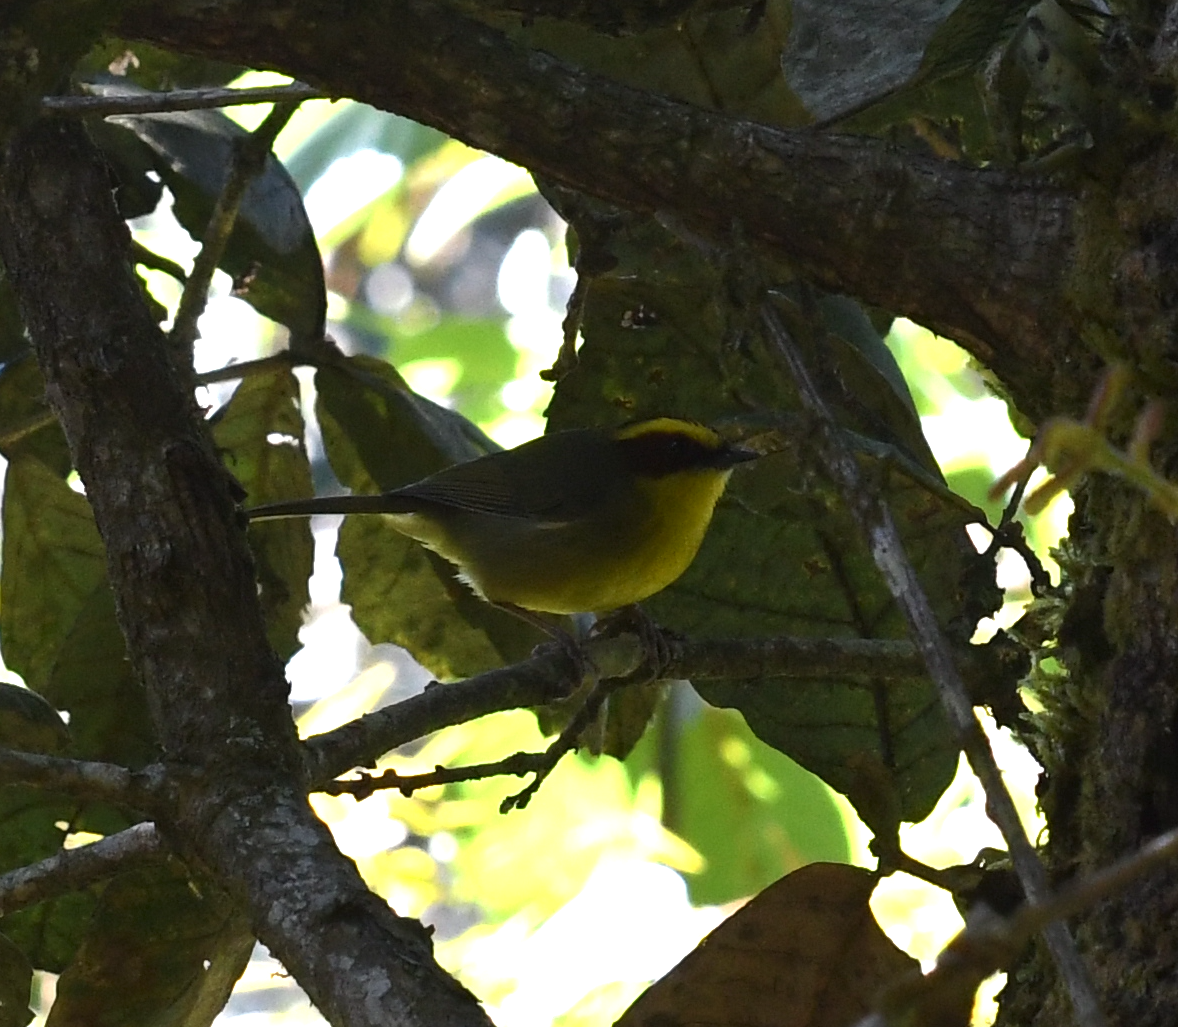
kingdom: Animalia
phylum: Chordata
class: Aves
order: Passeriformes
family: Parulidae
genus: Basileuterus
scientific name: Basileuterus belli
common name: Golden-browed warbler
